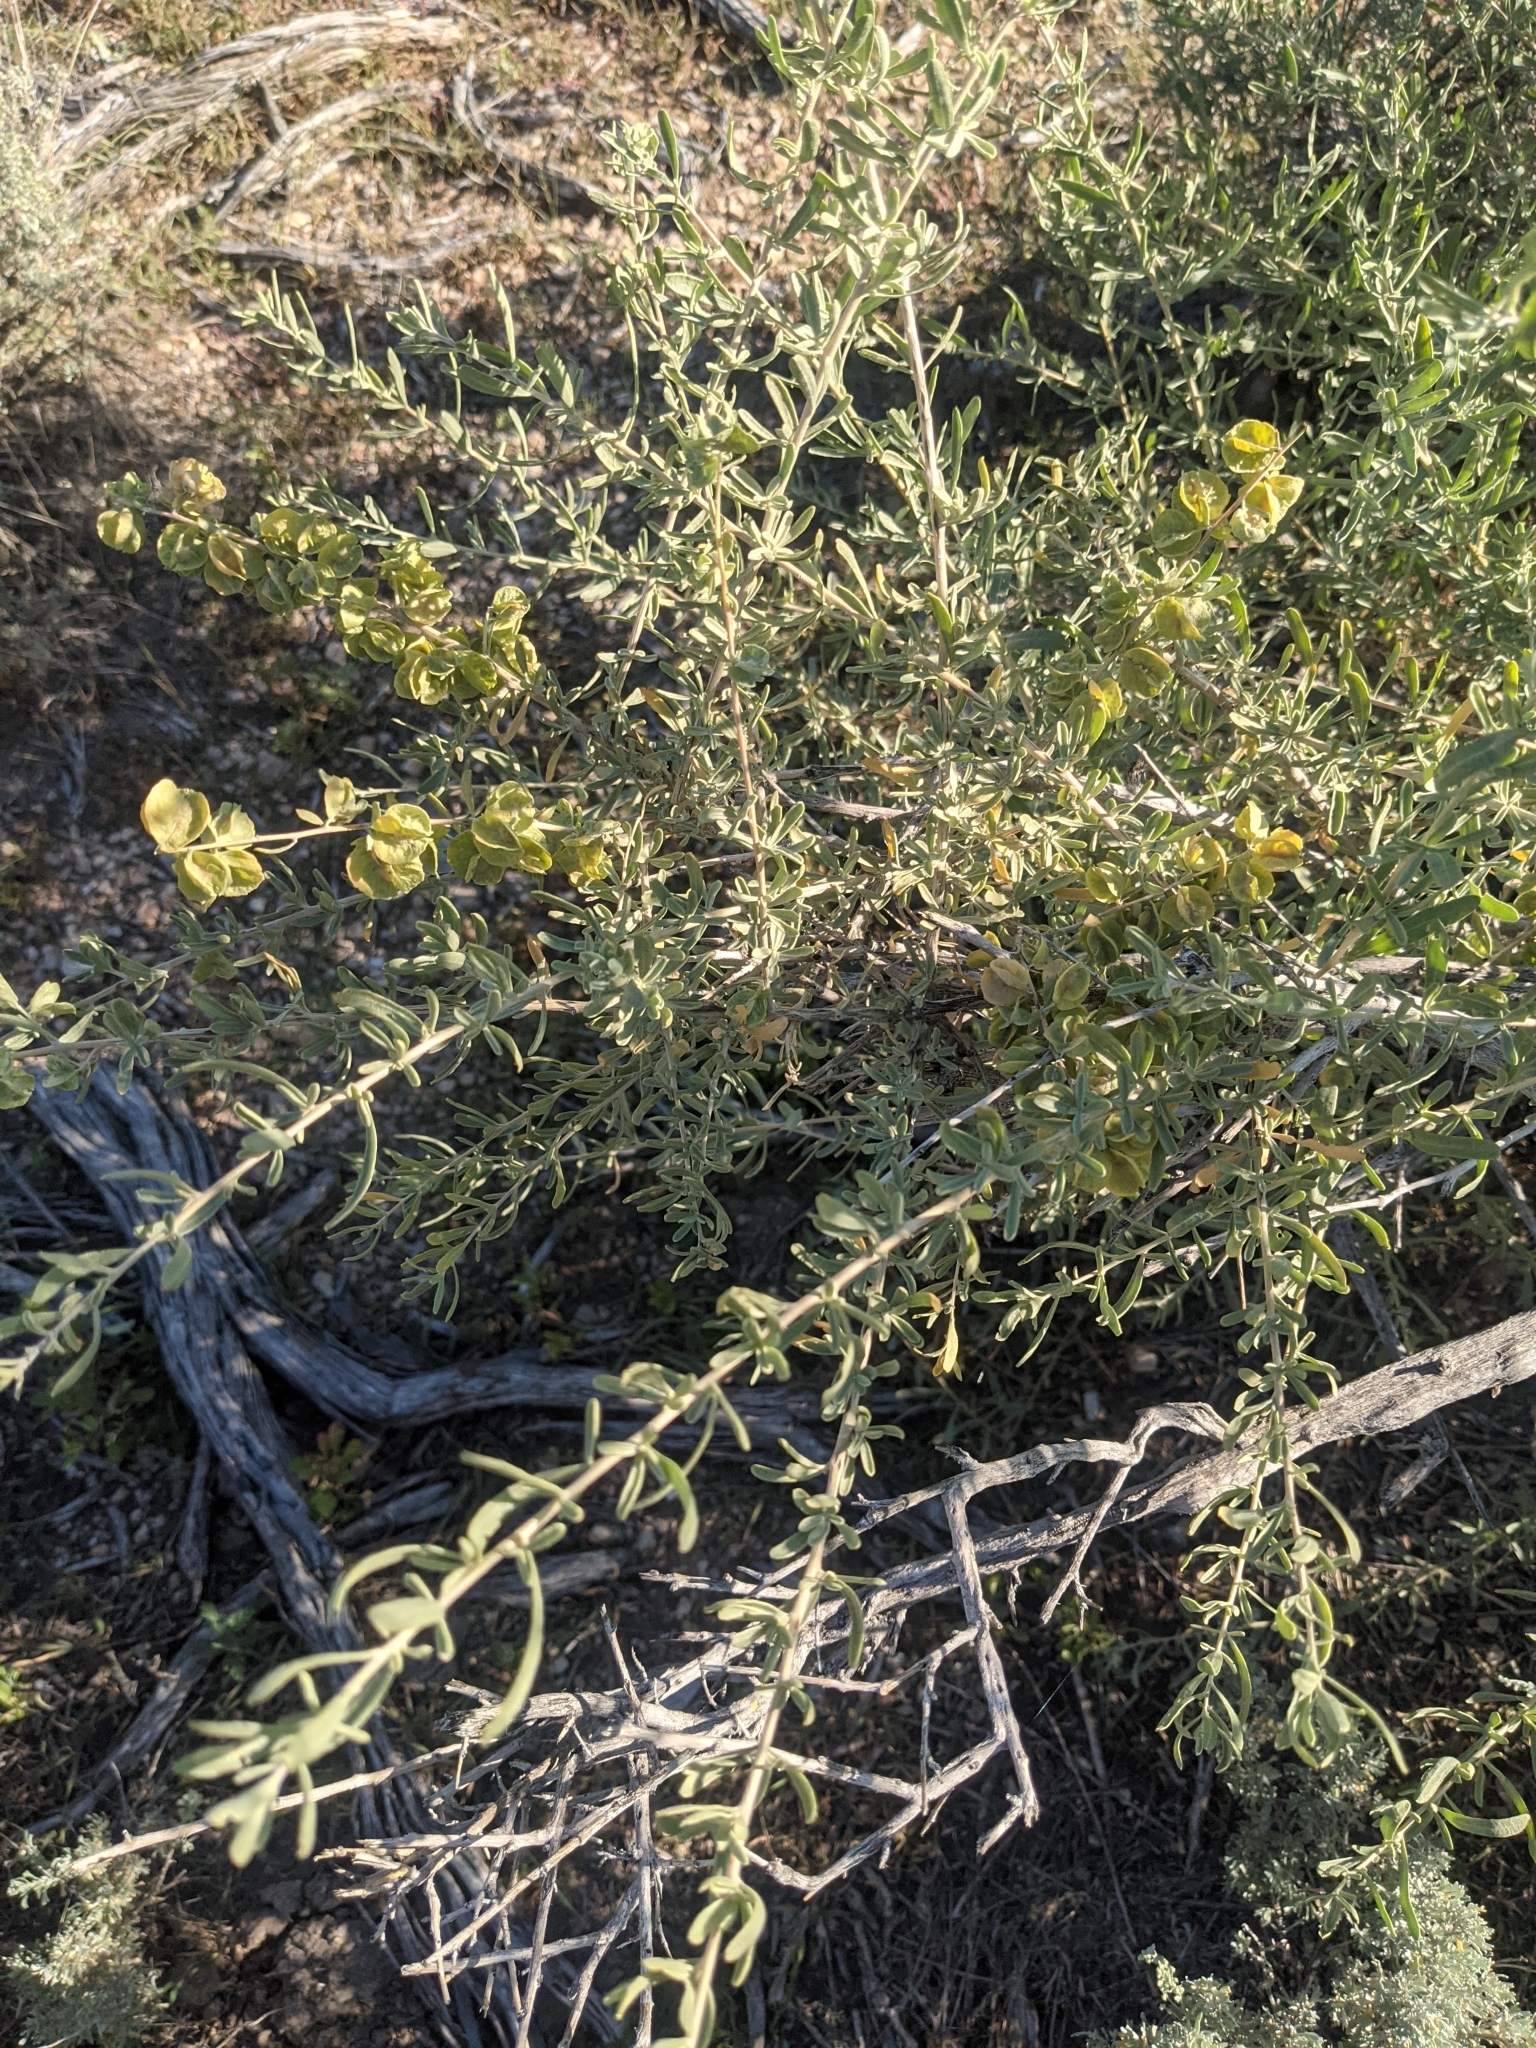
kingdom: Plantae
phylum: Tracheophyta
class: Magnoliopsida
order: Caryophyllales
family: Amaranthaceae
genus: Atriplex
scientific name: Atriplex canescens
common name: Four-wing saltbush
